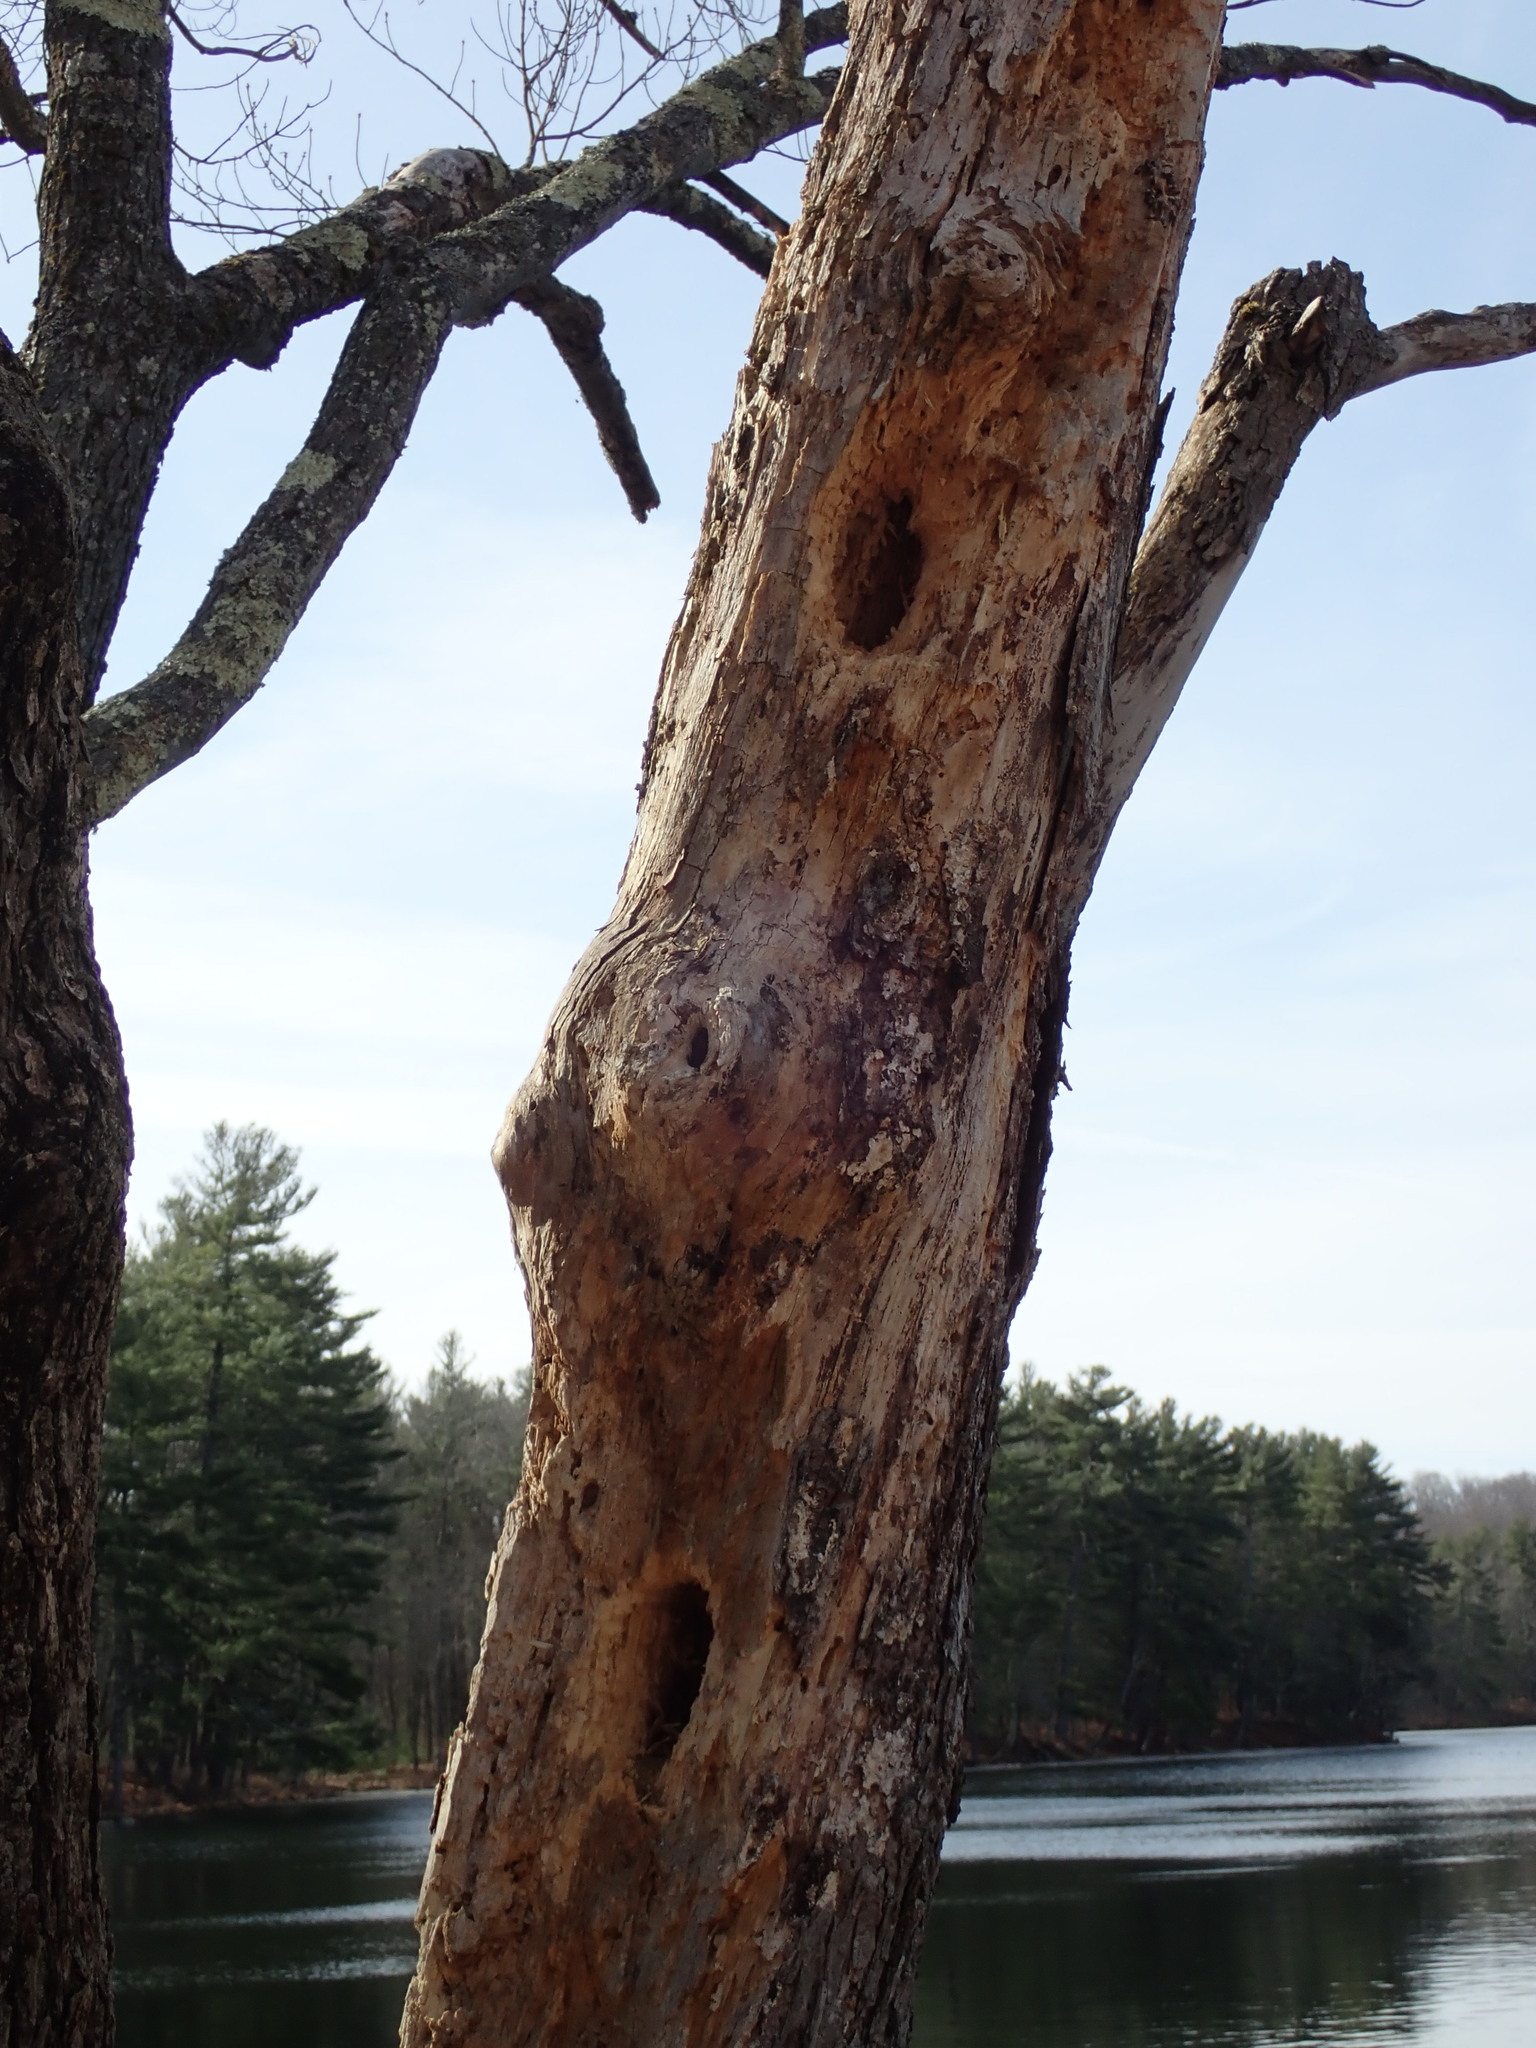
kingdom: Animalia
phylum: Chordata
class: Aves
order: Piciformes
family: Picidae
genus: Dryocopus
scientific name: Dryocopus pileatus
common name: Pileated woodpecker
